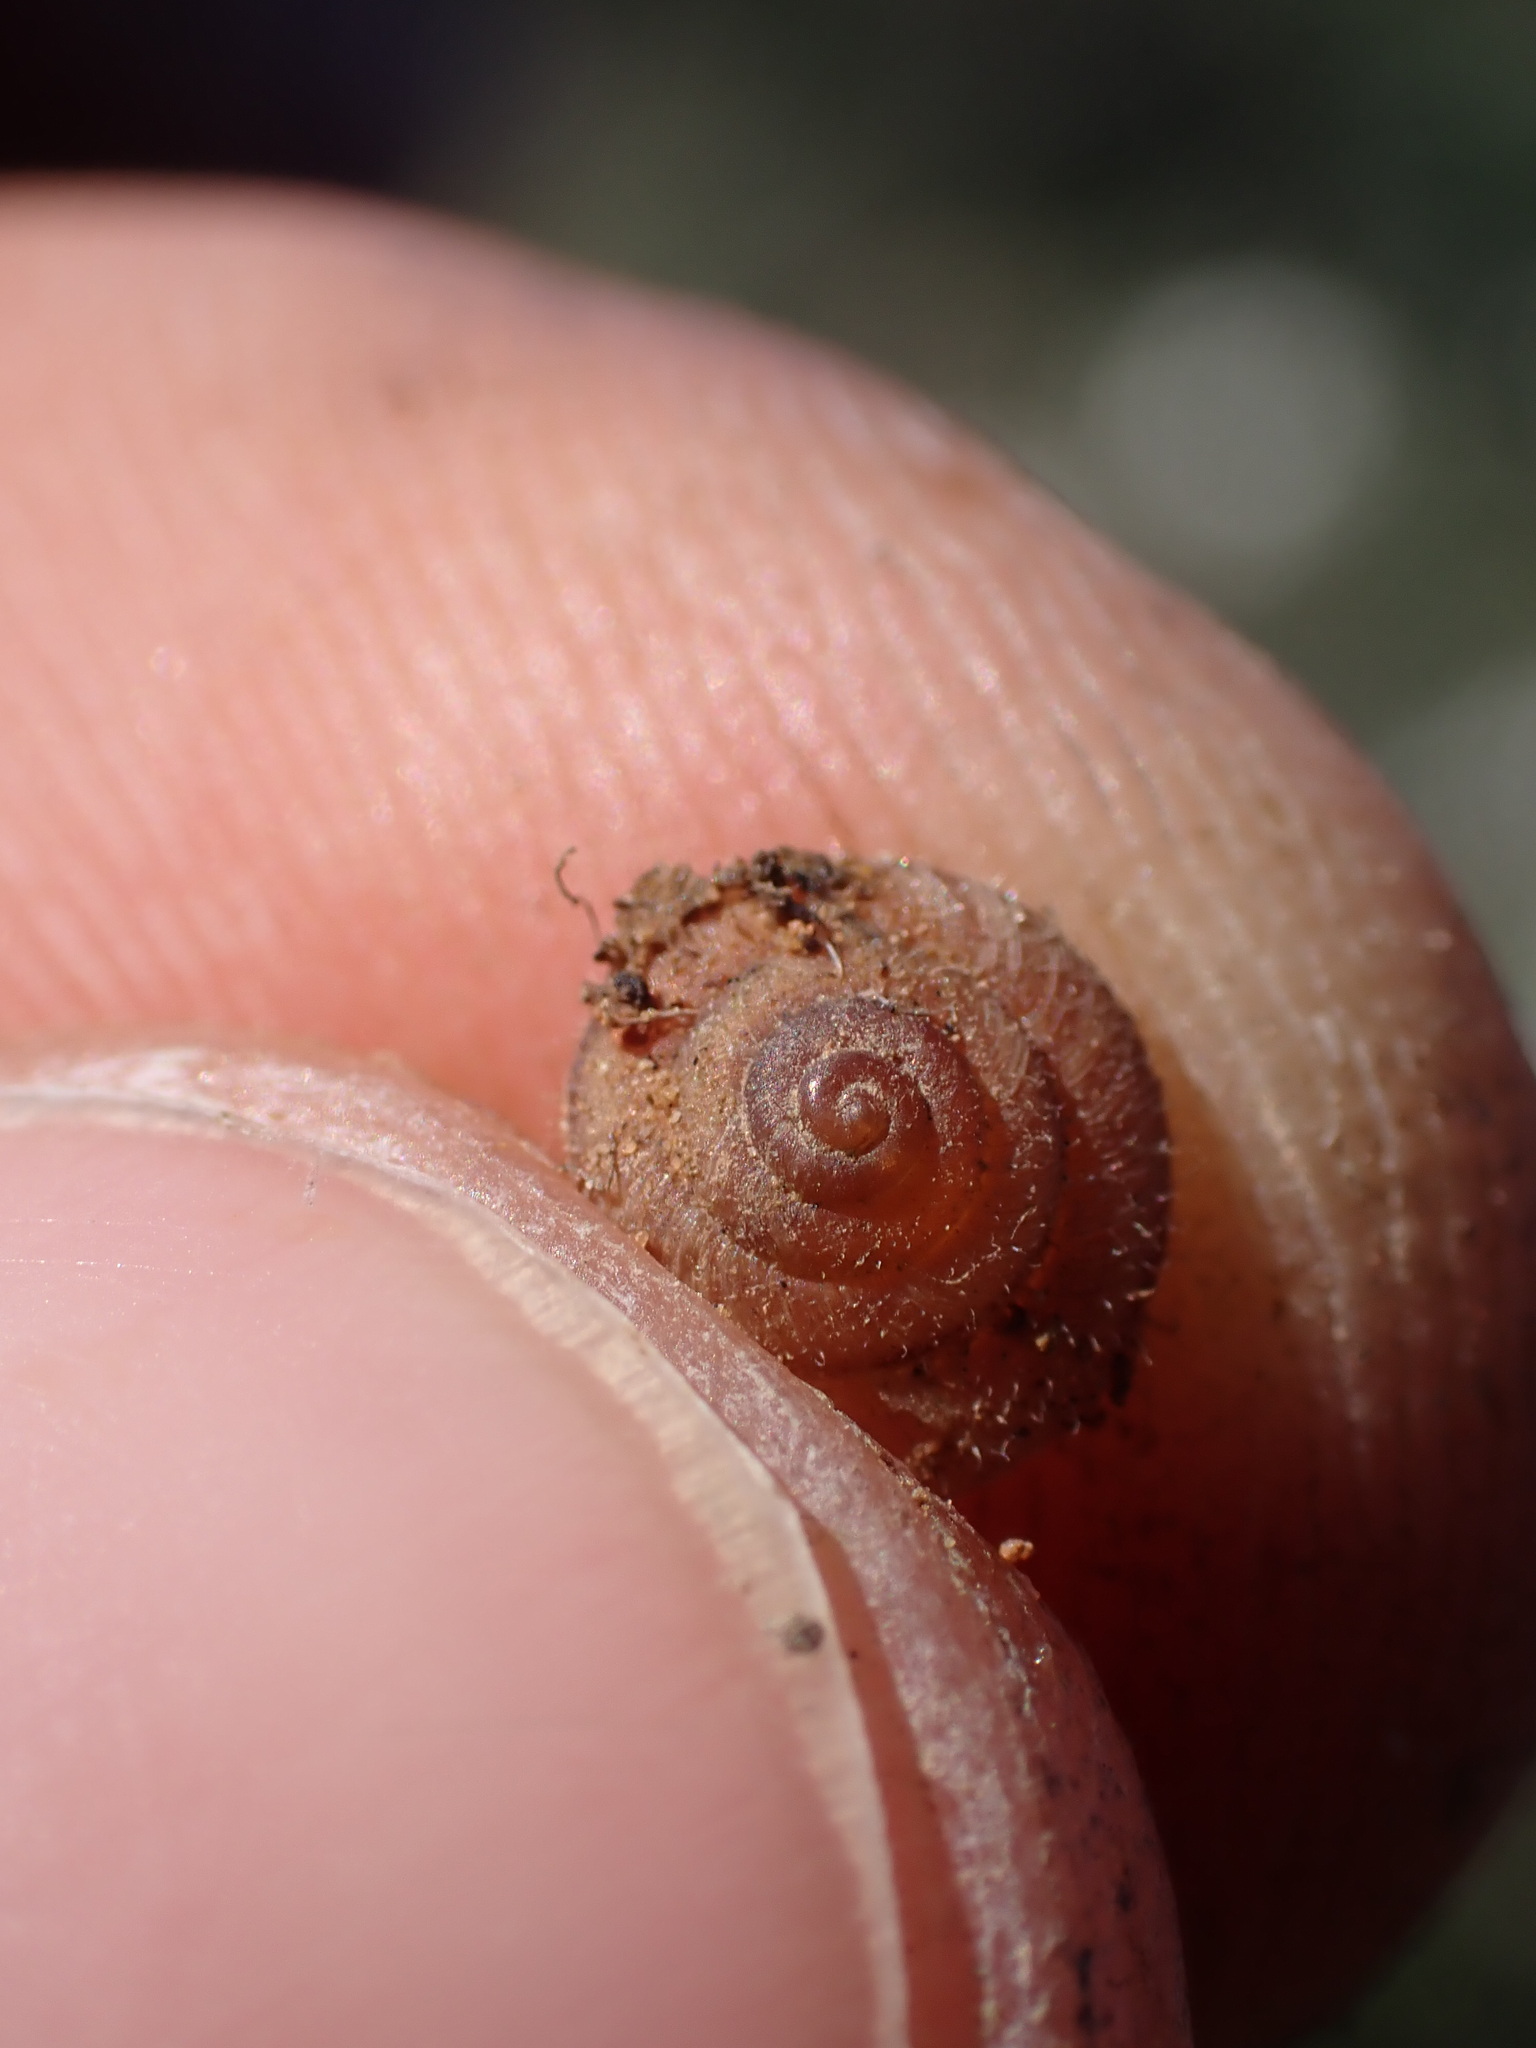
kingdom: Animalia
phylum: Mollusca
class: Gastropoda
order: Stylommatophora
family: Geomitridae
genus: Xerotricha
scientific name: Xerotricha conspurcata
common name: Snail
